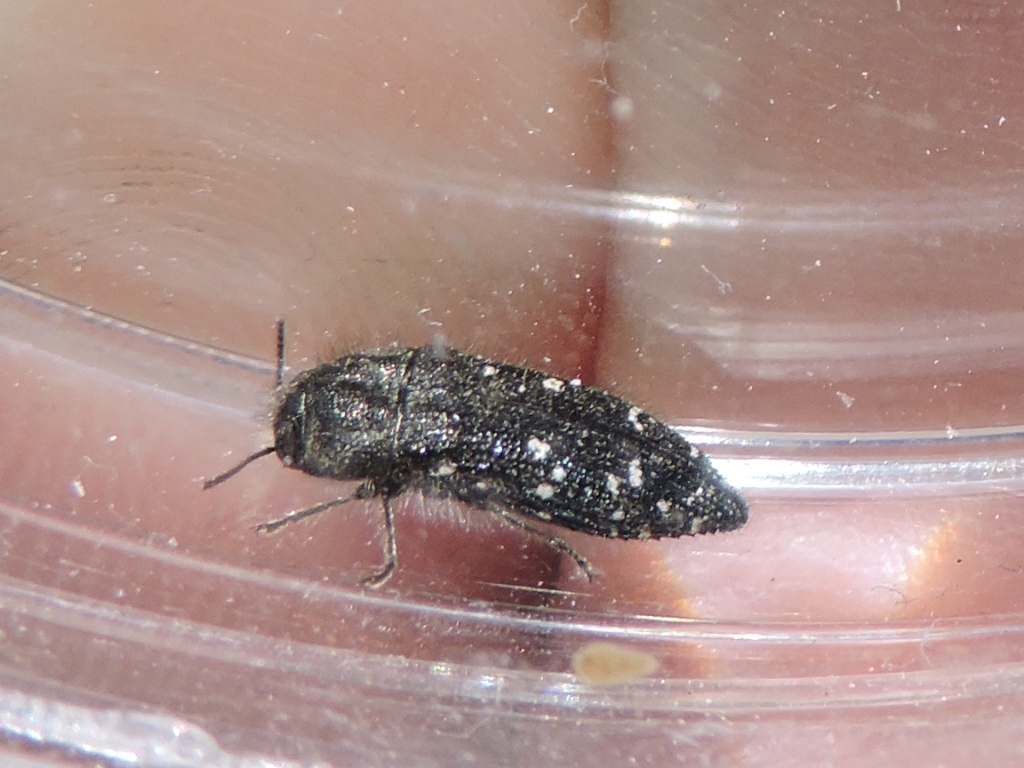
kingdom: Animalia
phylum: Arthropoda
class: Insecta
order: Coleoptera
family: Buprestidae
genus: Acmaeodera
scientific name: Acmaeodera ornatoides
